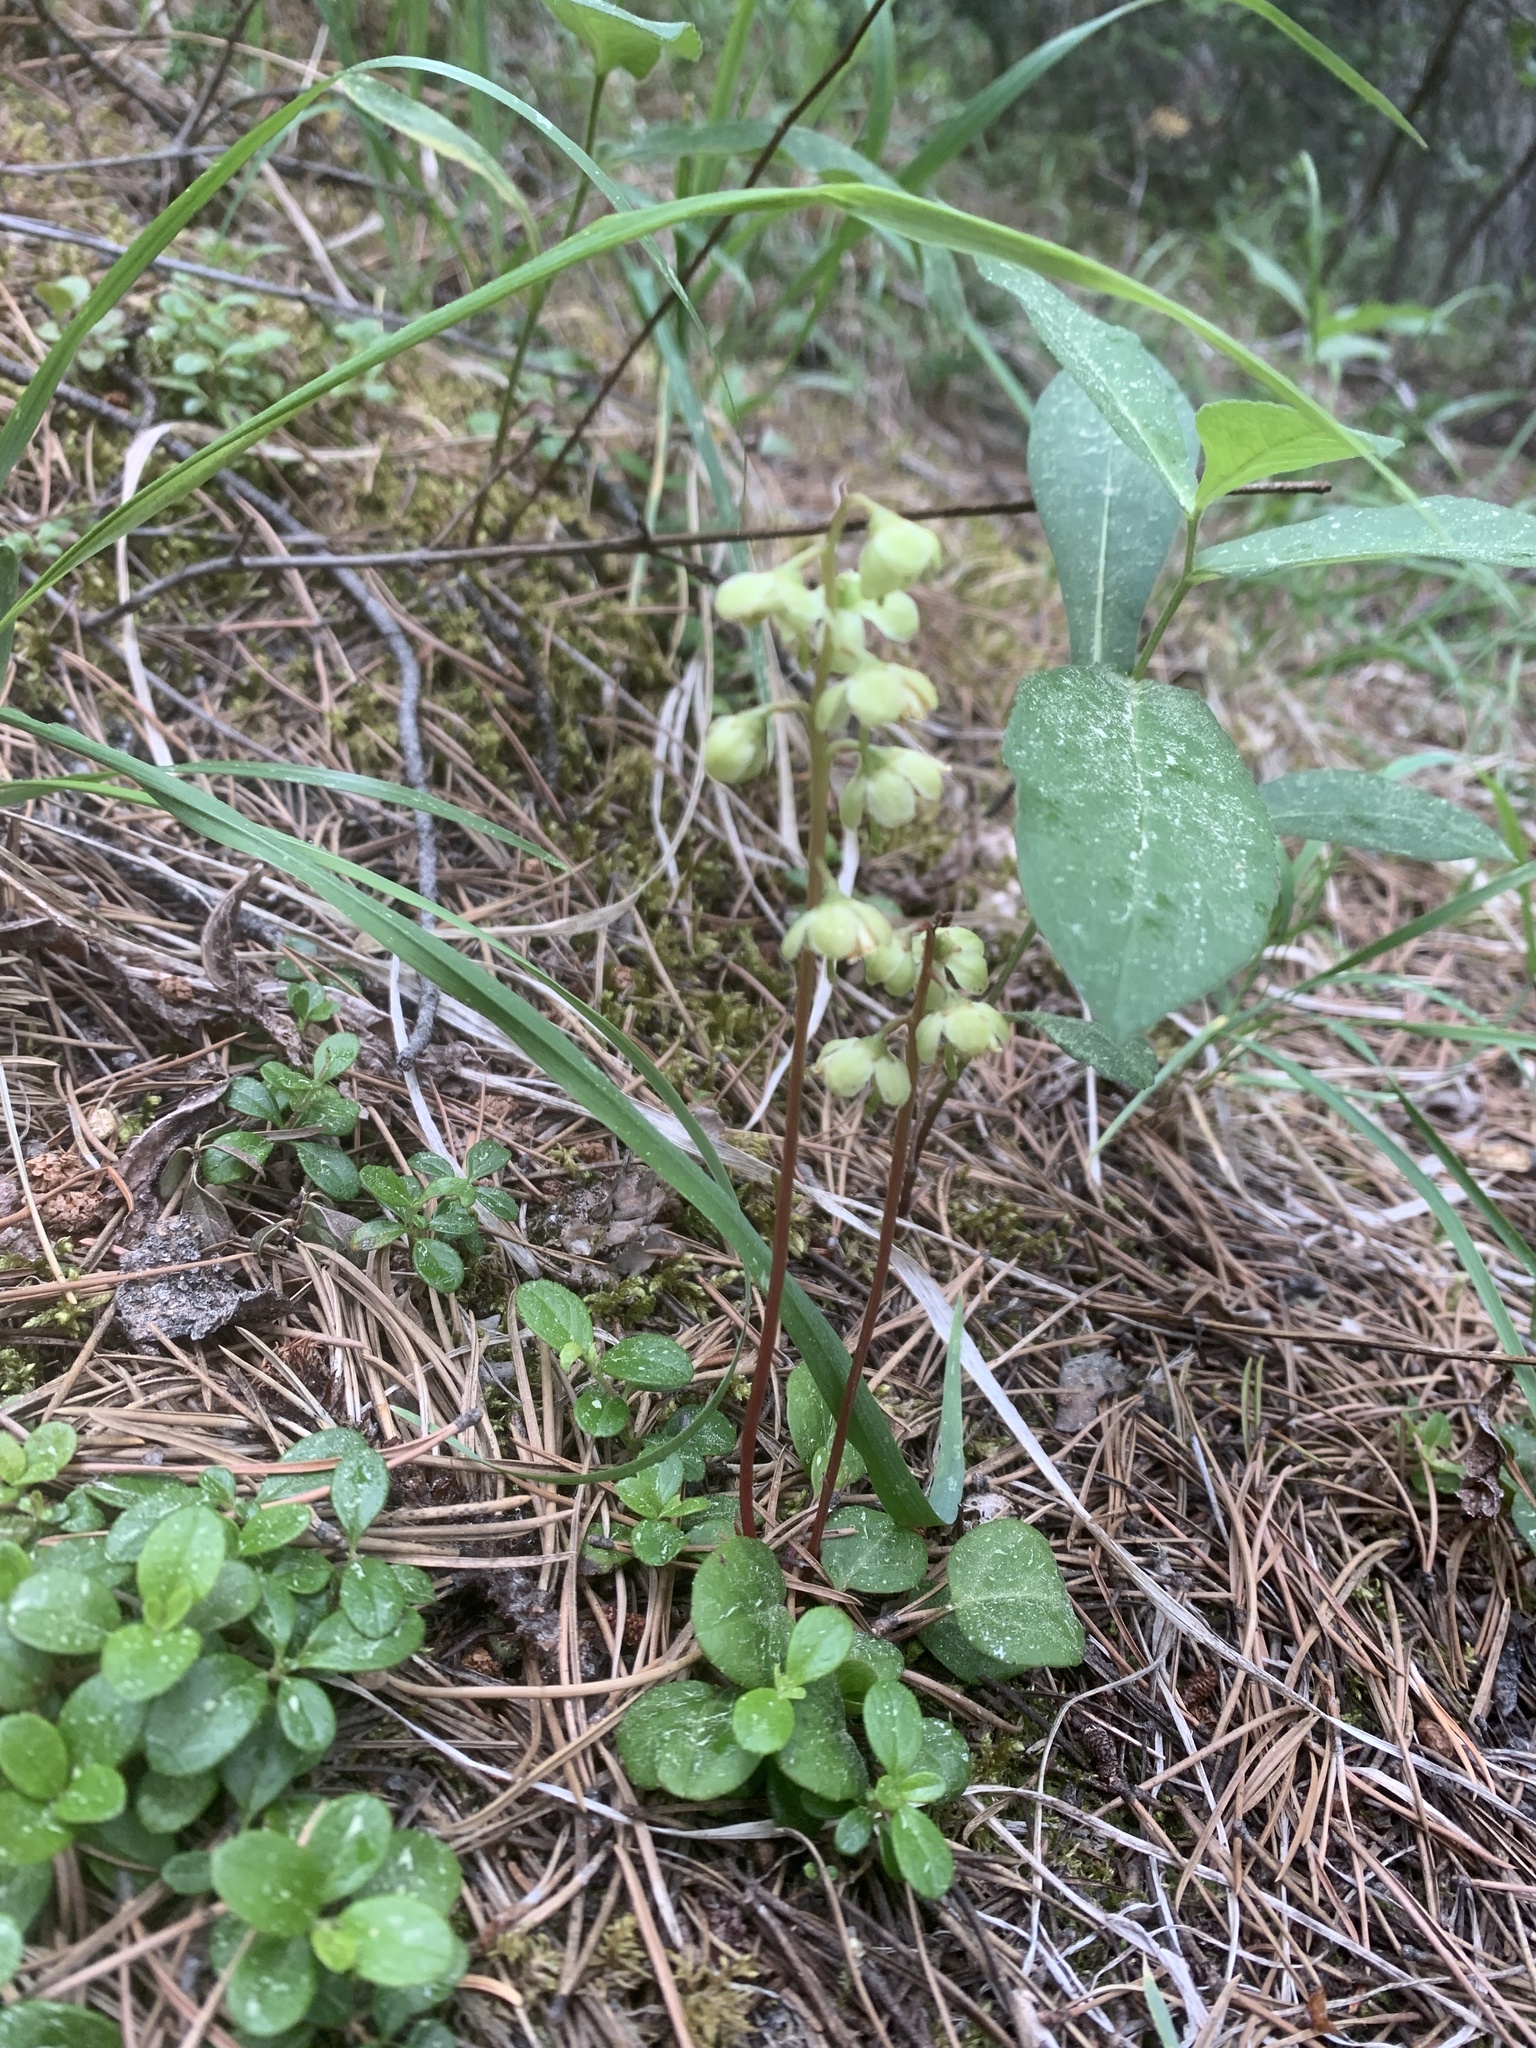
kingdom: Plantae
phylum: Tracheophyta
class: Magnoliopsida
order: Ericales
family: Ericaceae
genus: Pyrola
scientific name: Pyrola chlorantha
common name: Green wintergreen
